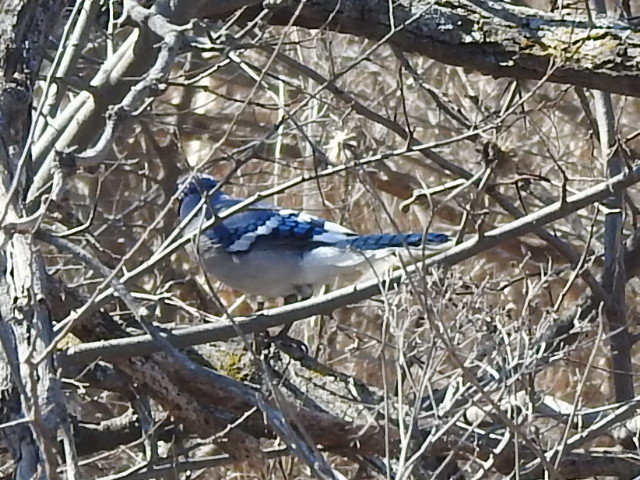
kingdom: Animalia
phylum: Chordata
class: Aves
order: Passeriformes
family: Corvidae
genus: Cyanocitta
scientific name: Cyanocitta cristata
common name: Blue jay
